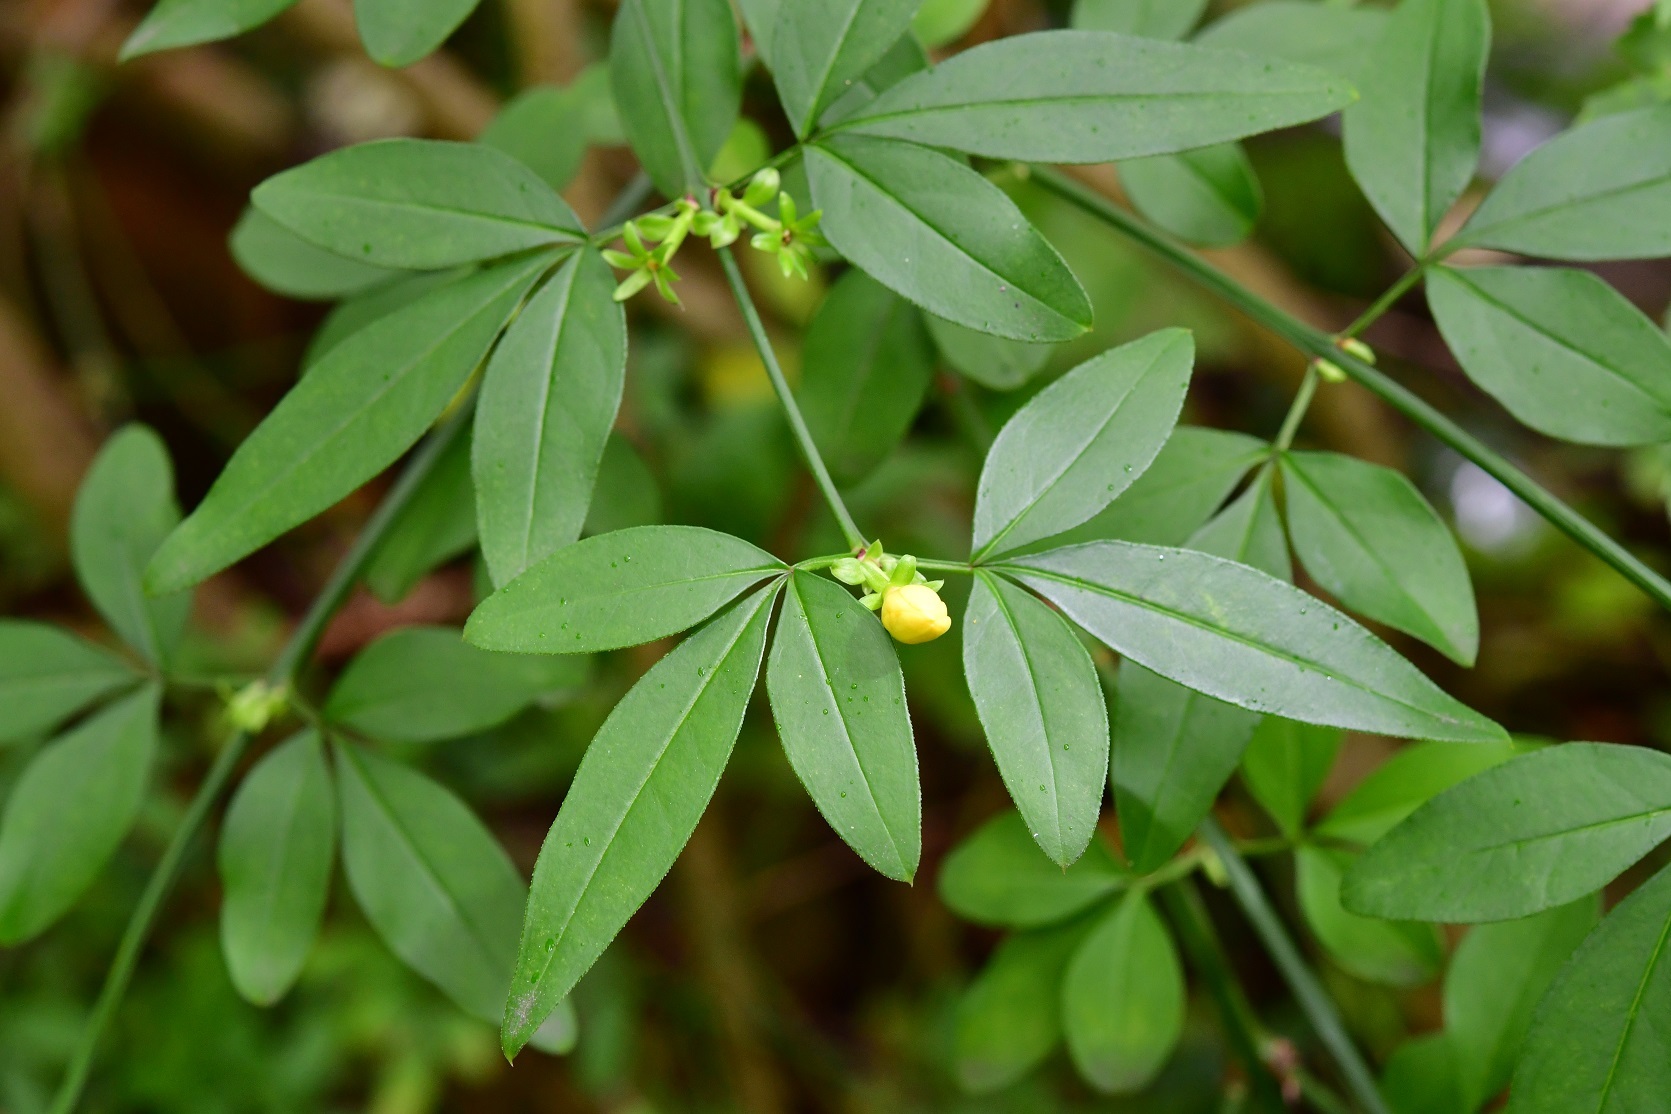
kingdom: Plantae
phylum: Tracheophyta
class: Magnoliopsida
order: Lamiales
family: Oleaceae
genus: Jasminum
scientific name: Jasminum mesnyi
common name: Japanese jasmine
